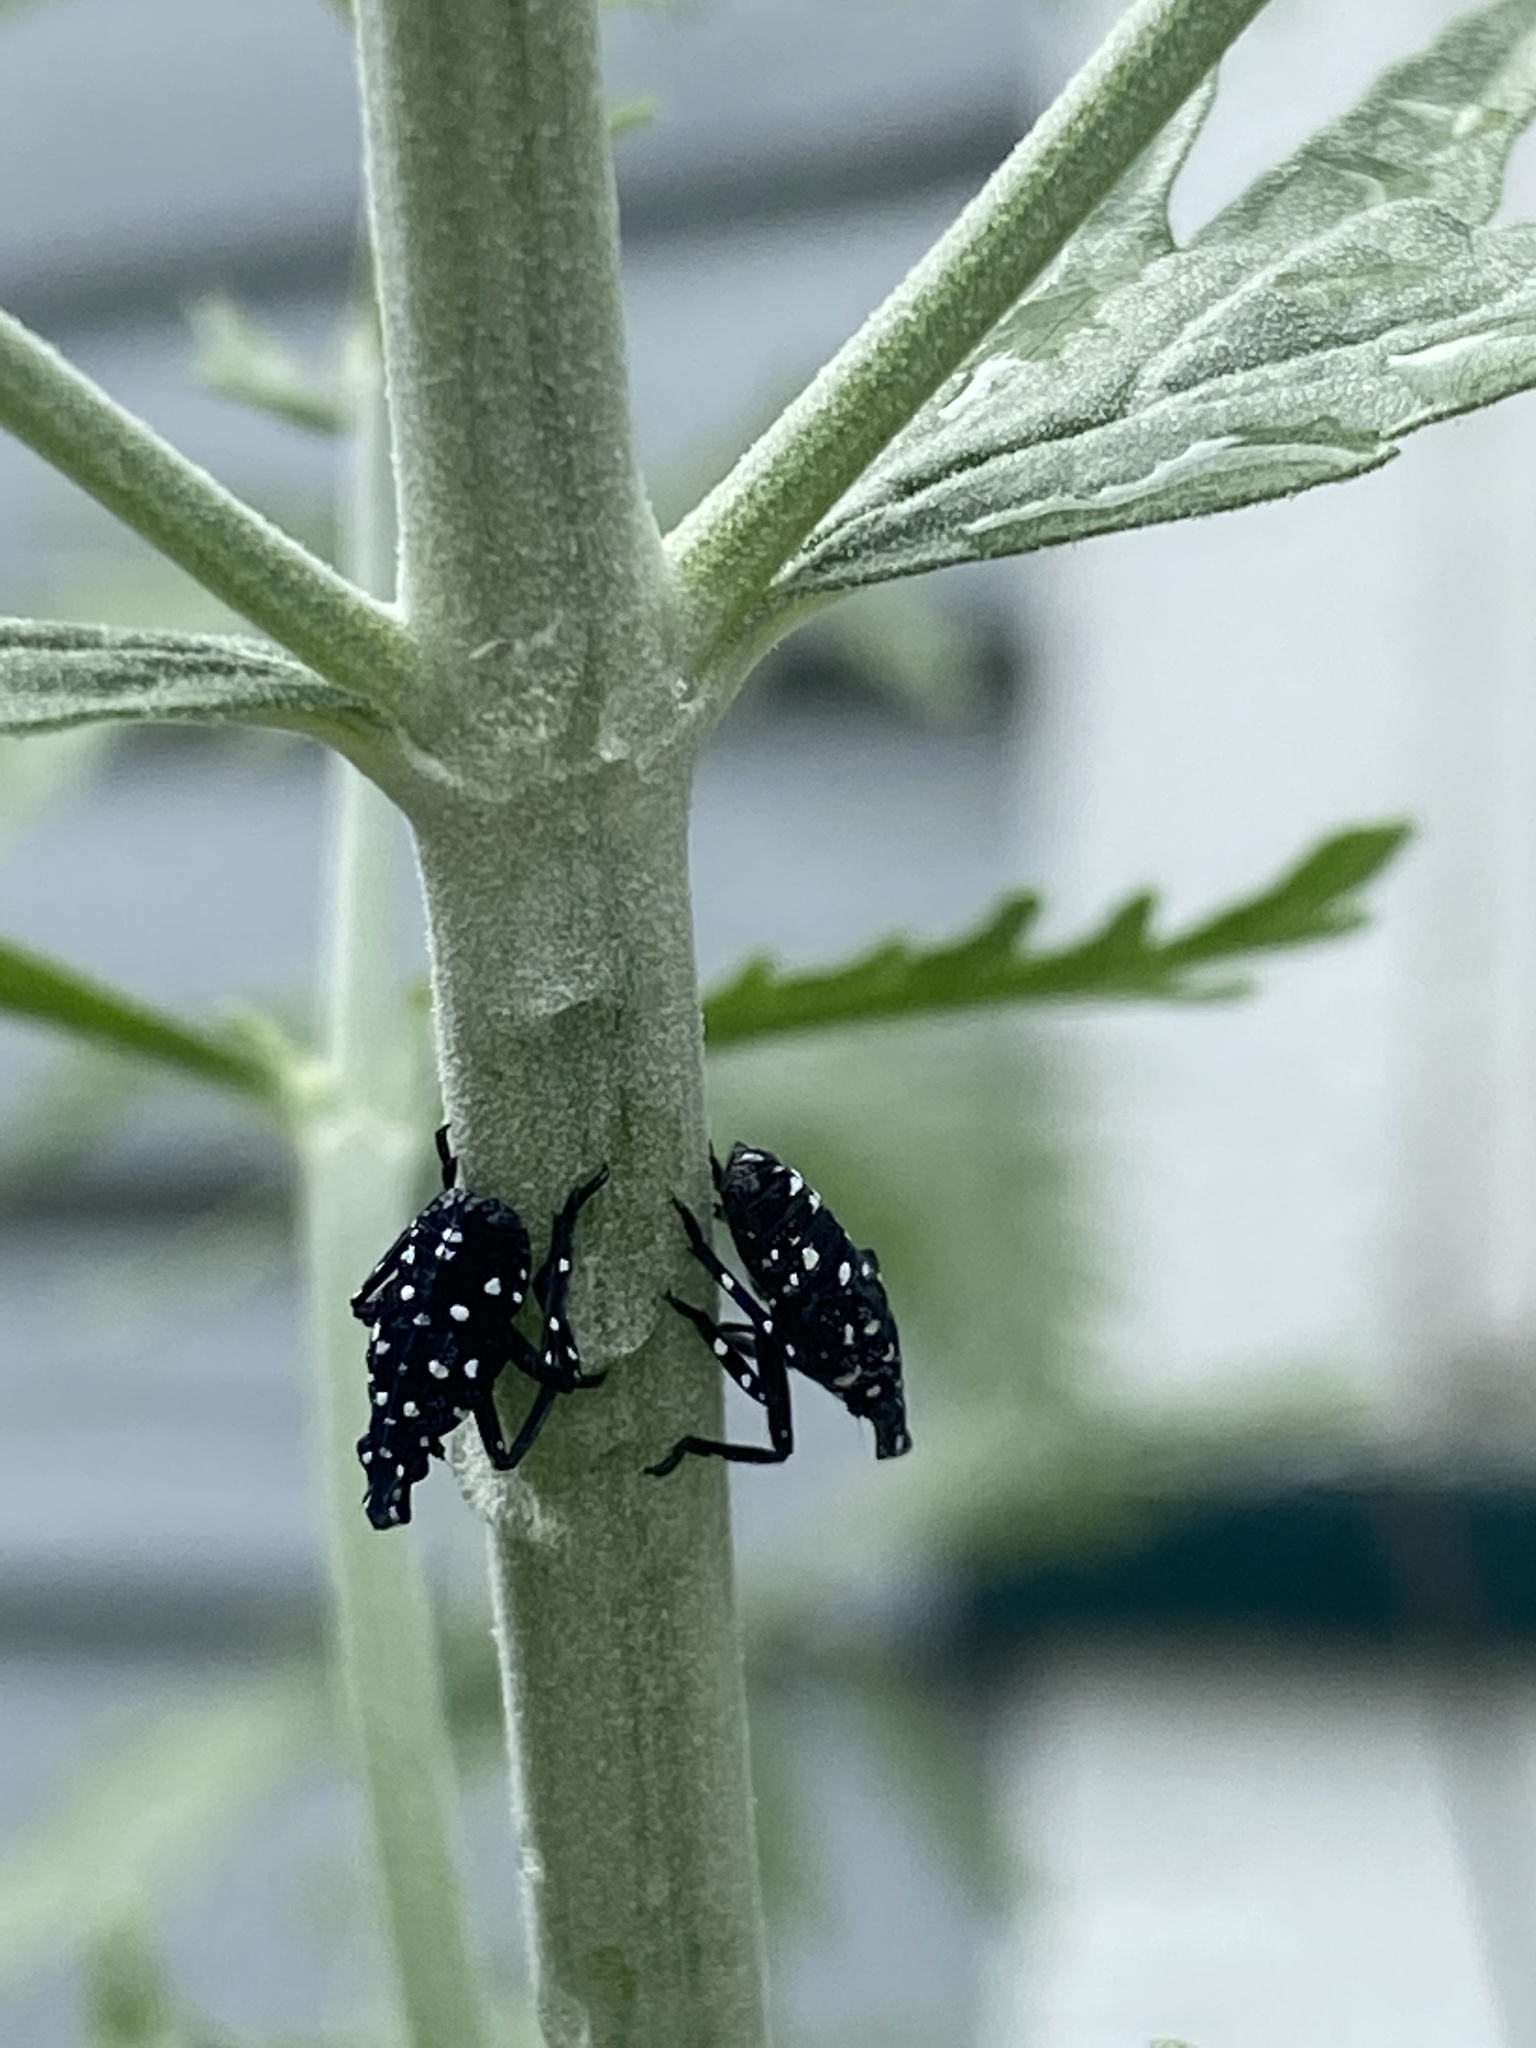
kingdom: Animalia
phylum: Arthropoda
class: Insecta
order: Hemiptera
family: Fulgoridae
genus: Lycorma
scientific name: Lycorma delicatula
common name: Spotted lanternfly
